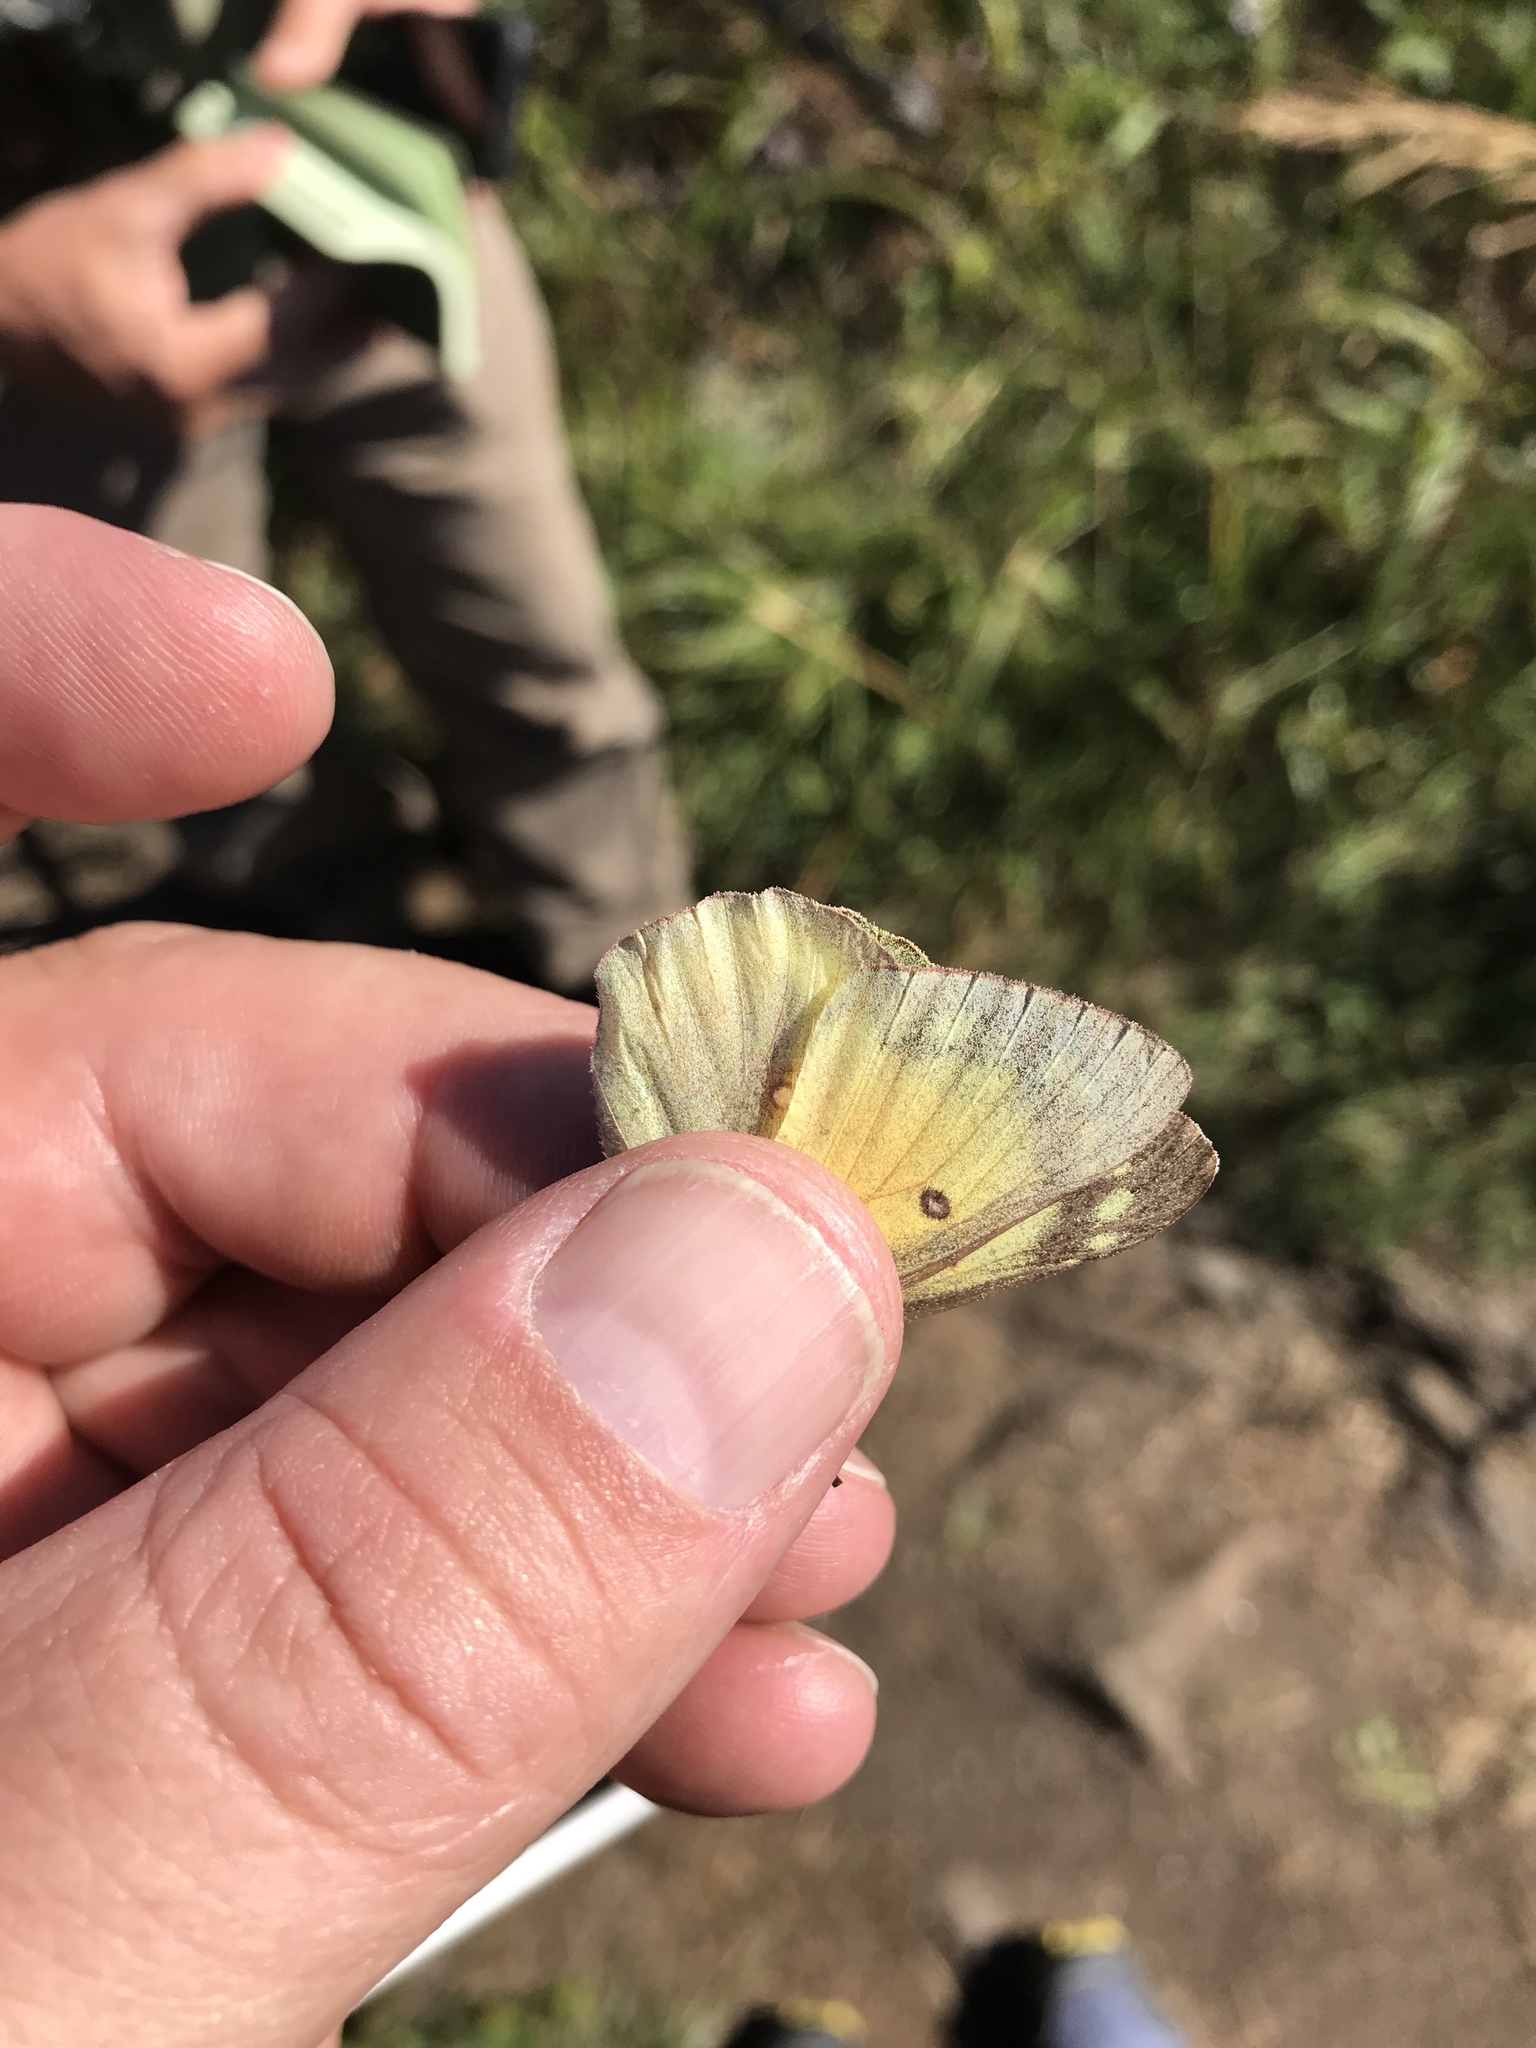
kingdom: Animalia
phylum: Arthropoda
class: Insecta
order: Lepidoptera
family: Pieridae
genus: Colias
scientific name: Colias eurytheme
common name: Alfalfa butterfly
